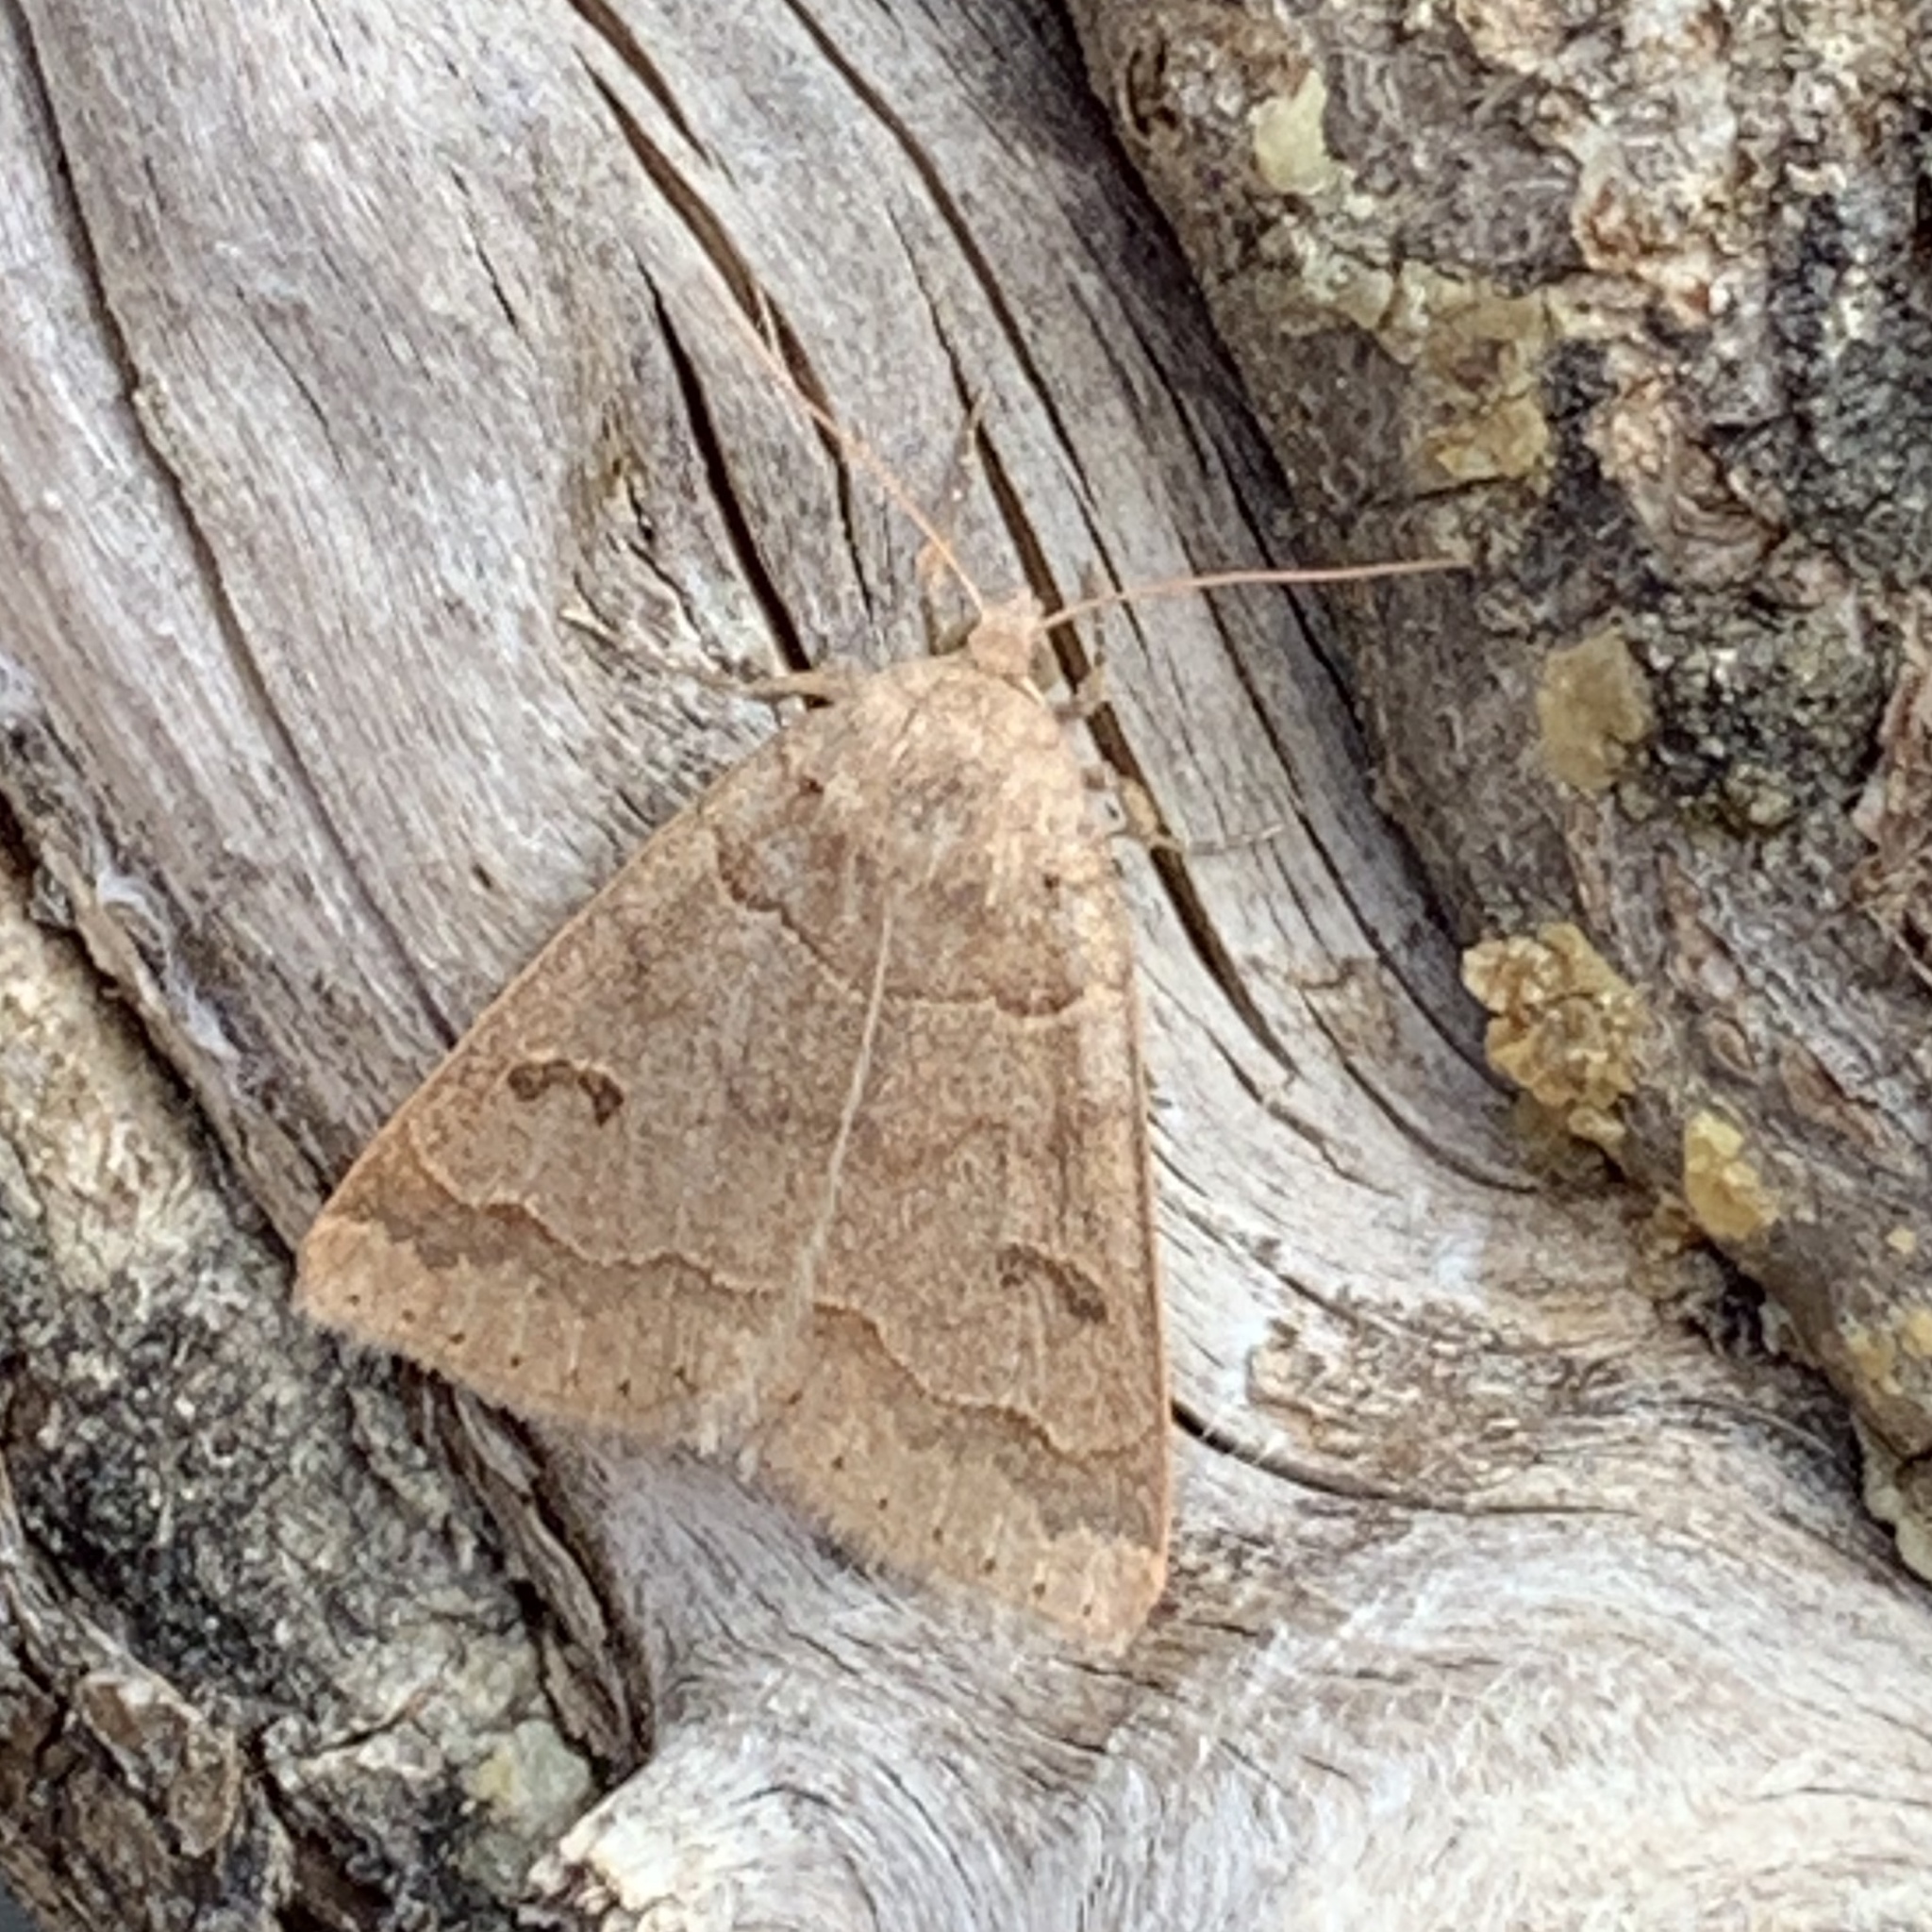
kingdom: Animalia
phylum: Arthropoda
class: Insecta
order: Lepidoptera
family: Erebidae
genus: Phoberia
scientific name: Phoberia atomaris
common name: Common oak moth
